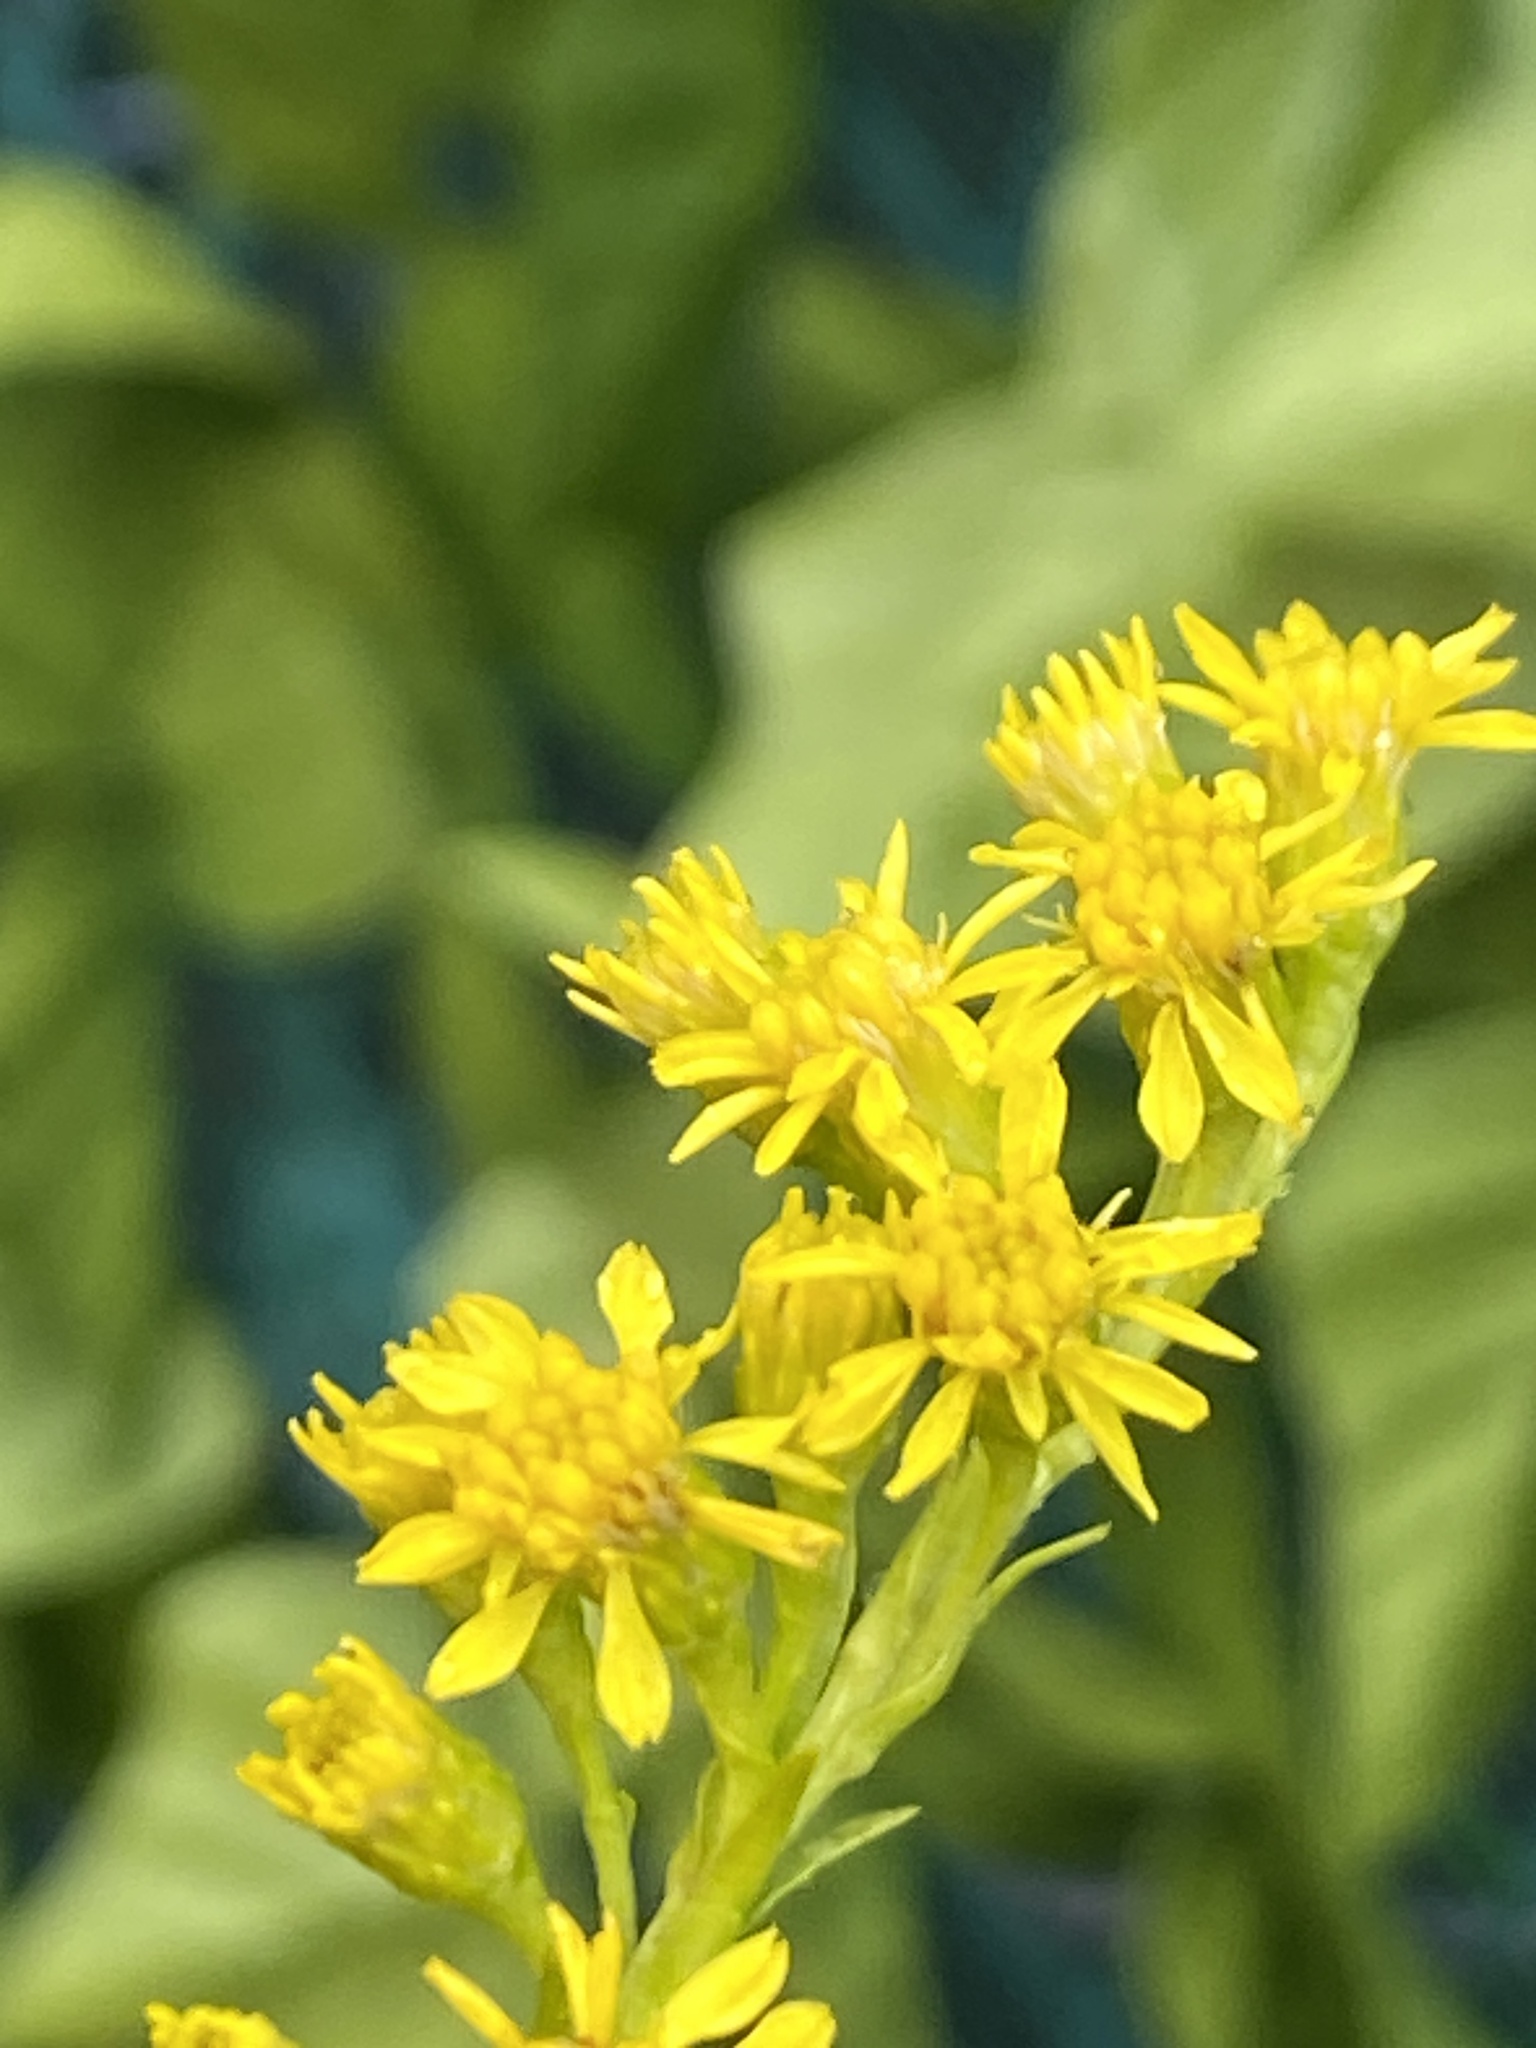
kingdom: Plantae
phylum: Tracheophyta
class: Magnoliopsida
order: Asterales
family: Asteraceae
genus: Solidago
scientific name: Solidago sempervirens
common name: Salt-marsh goldenrod
